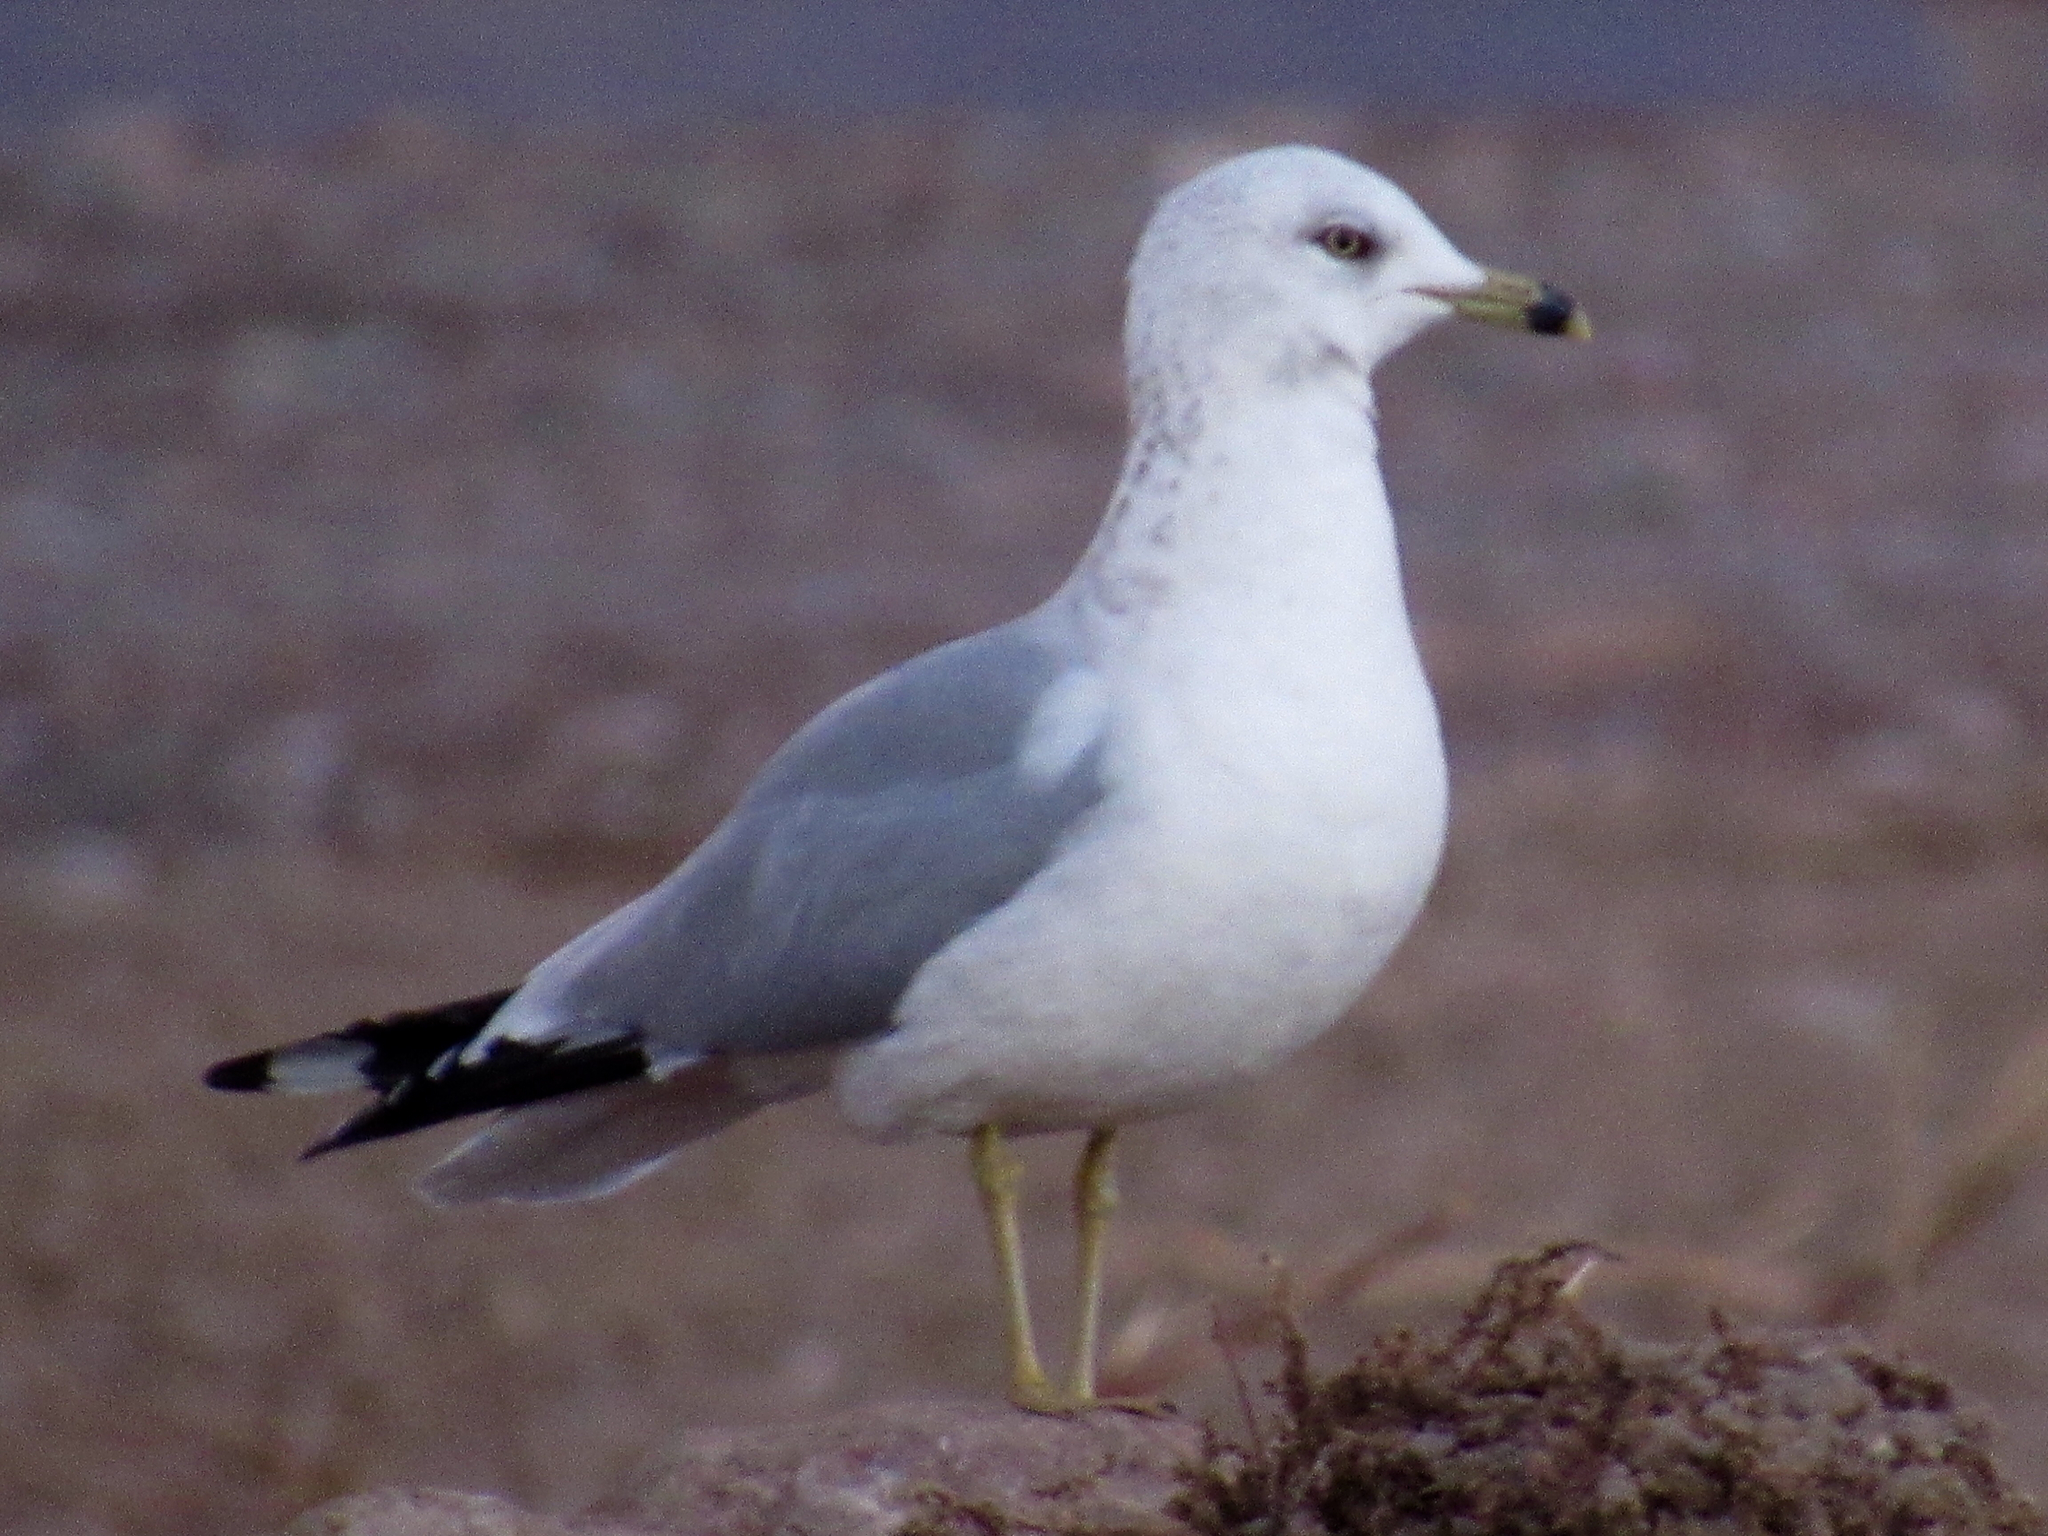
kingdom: Animalia
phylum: Chordata
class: Aves
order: Charadriiformes
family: Laridae
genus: Larus
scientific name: Larus delawarensis
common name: Ring-billed gull
